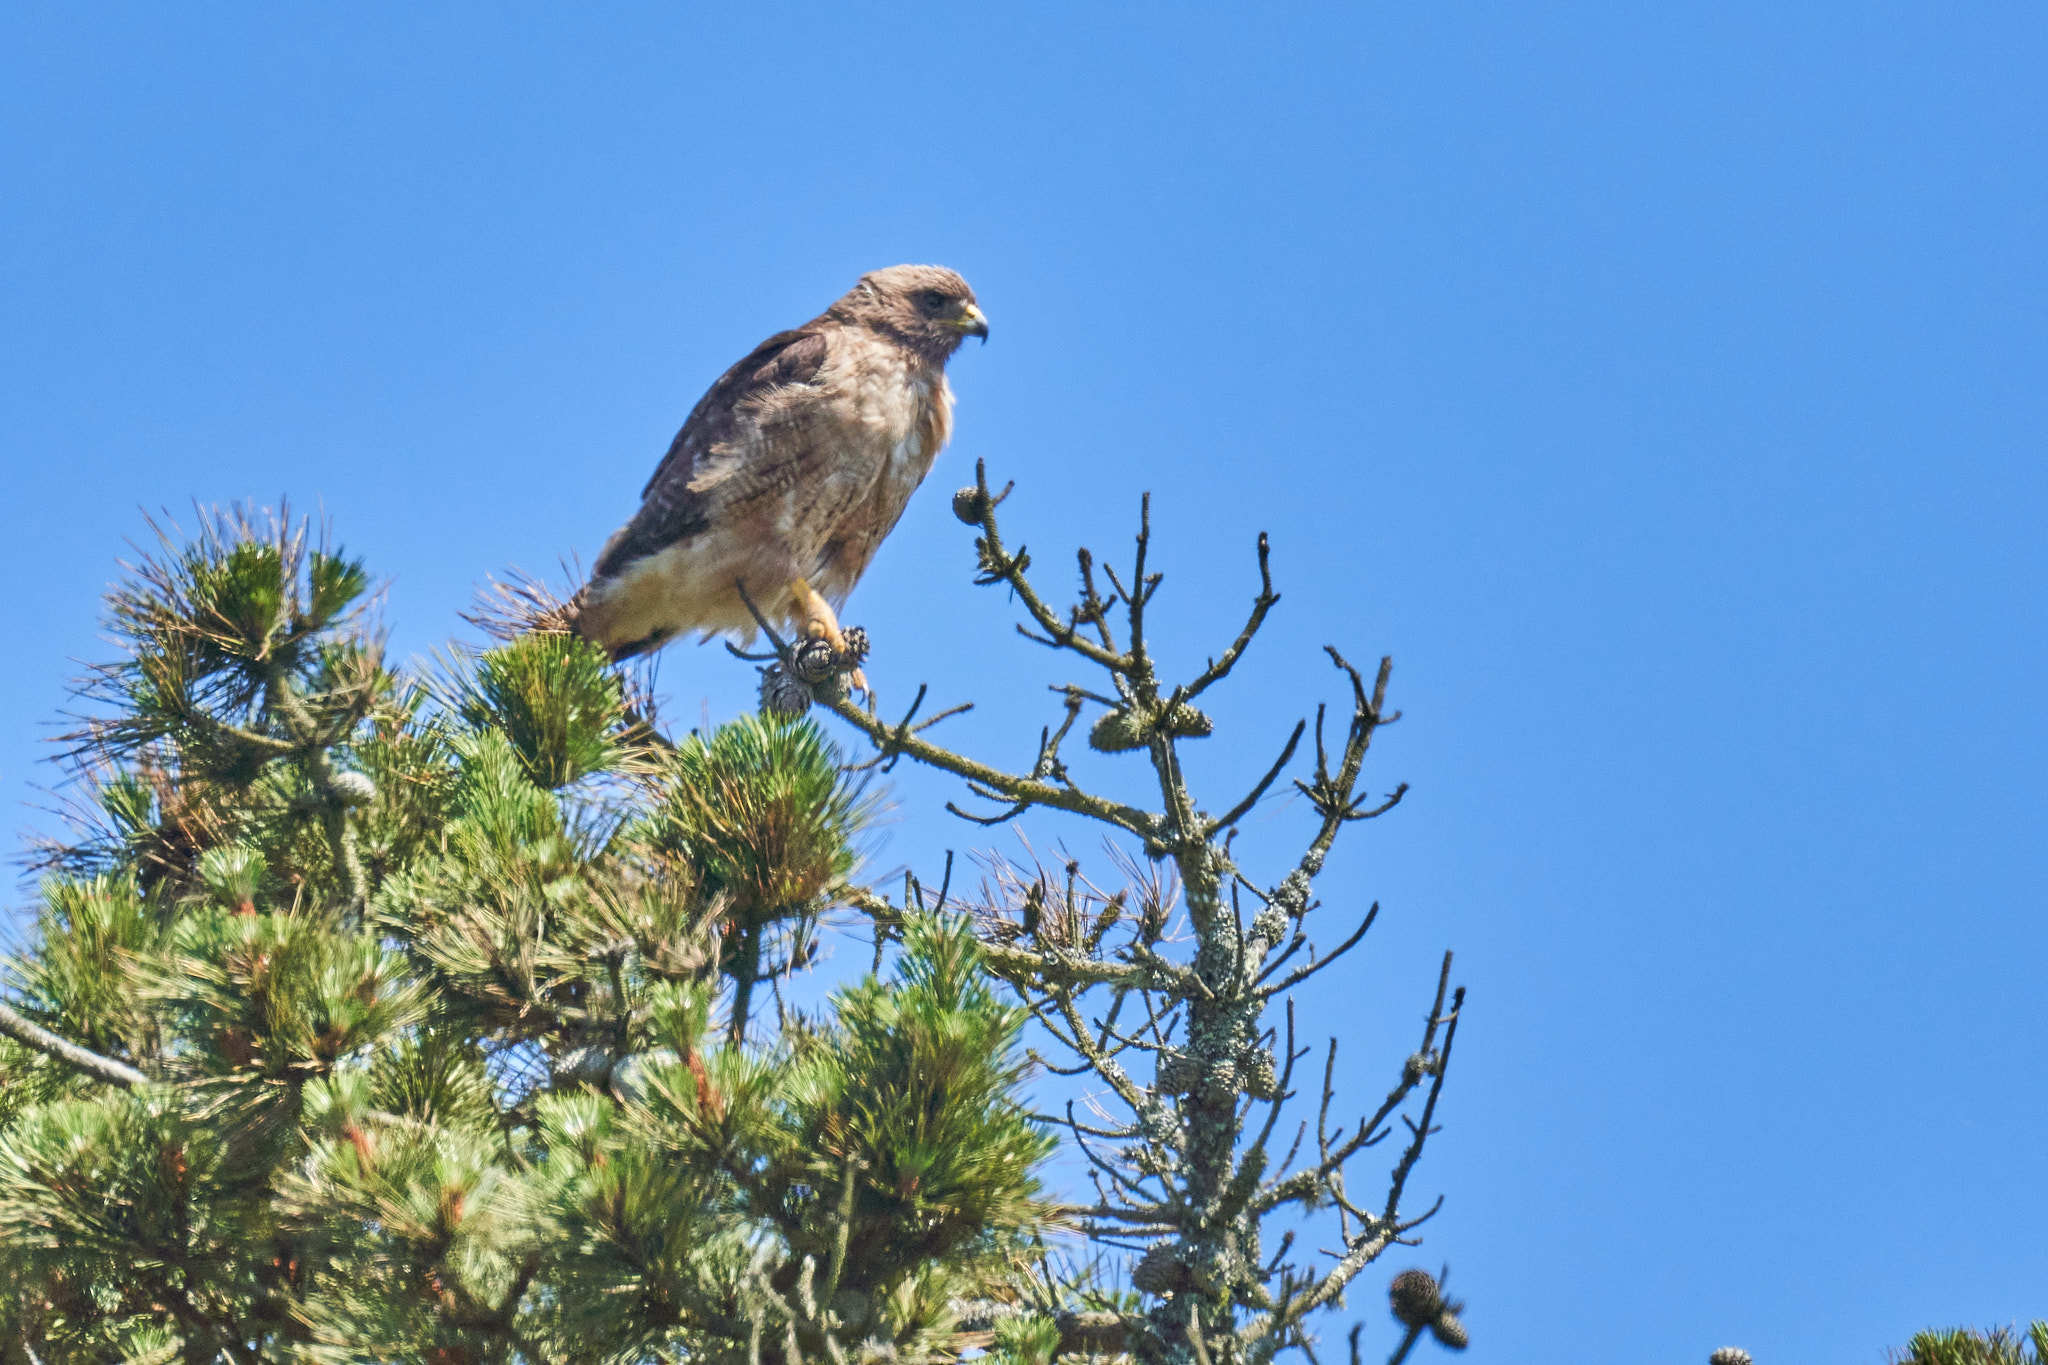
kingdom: Animalia
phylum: Chordata
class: Aves
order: Accipitriformes
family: Accipitridae
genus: Buteo
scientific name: Buteo jamaicensis
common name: Red-tailed hawk
